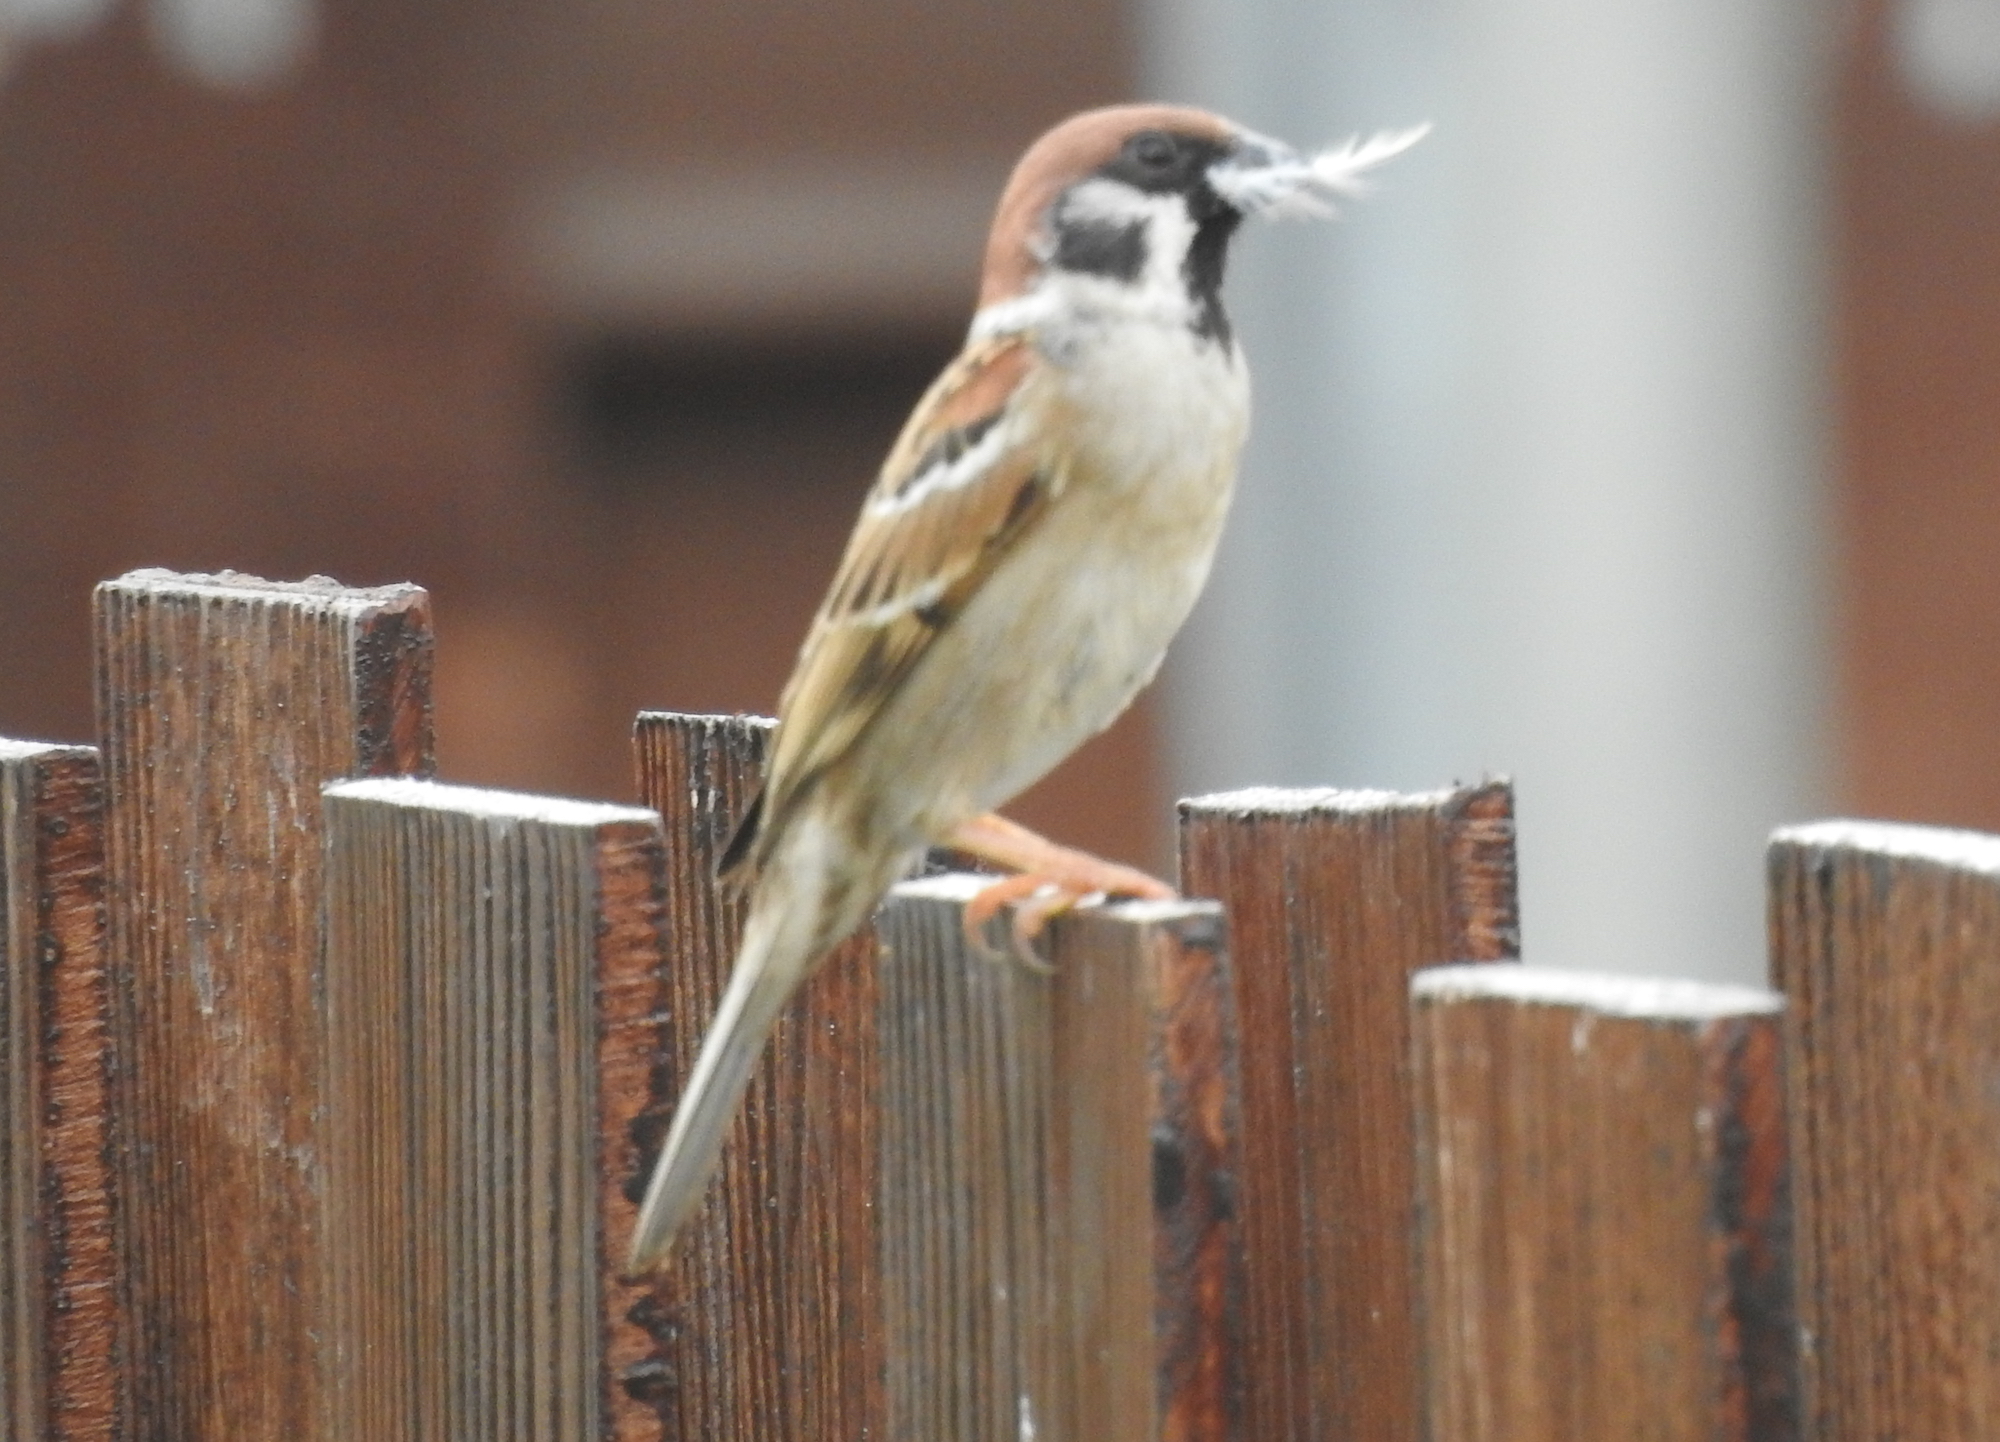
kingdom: Animalia
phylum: Chordata
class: Aves
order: Passeriformes
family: Passeridae
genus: Passer
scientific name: Passer montanus
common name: Eurasian tree sparrow
